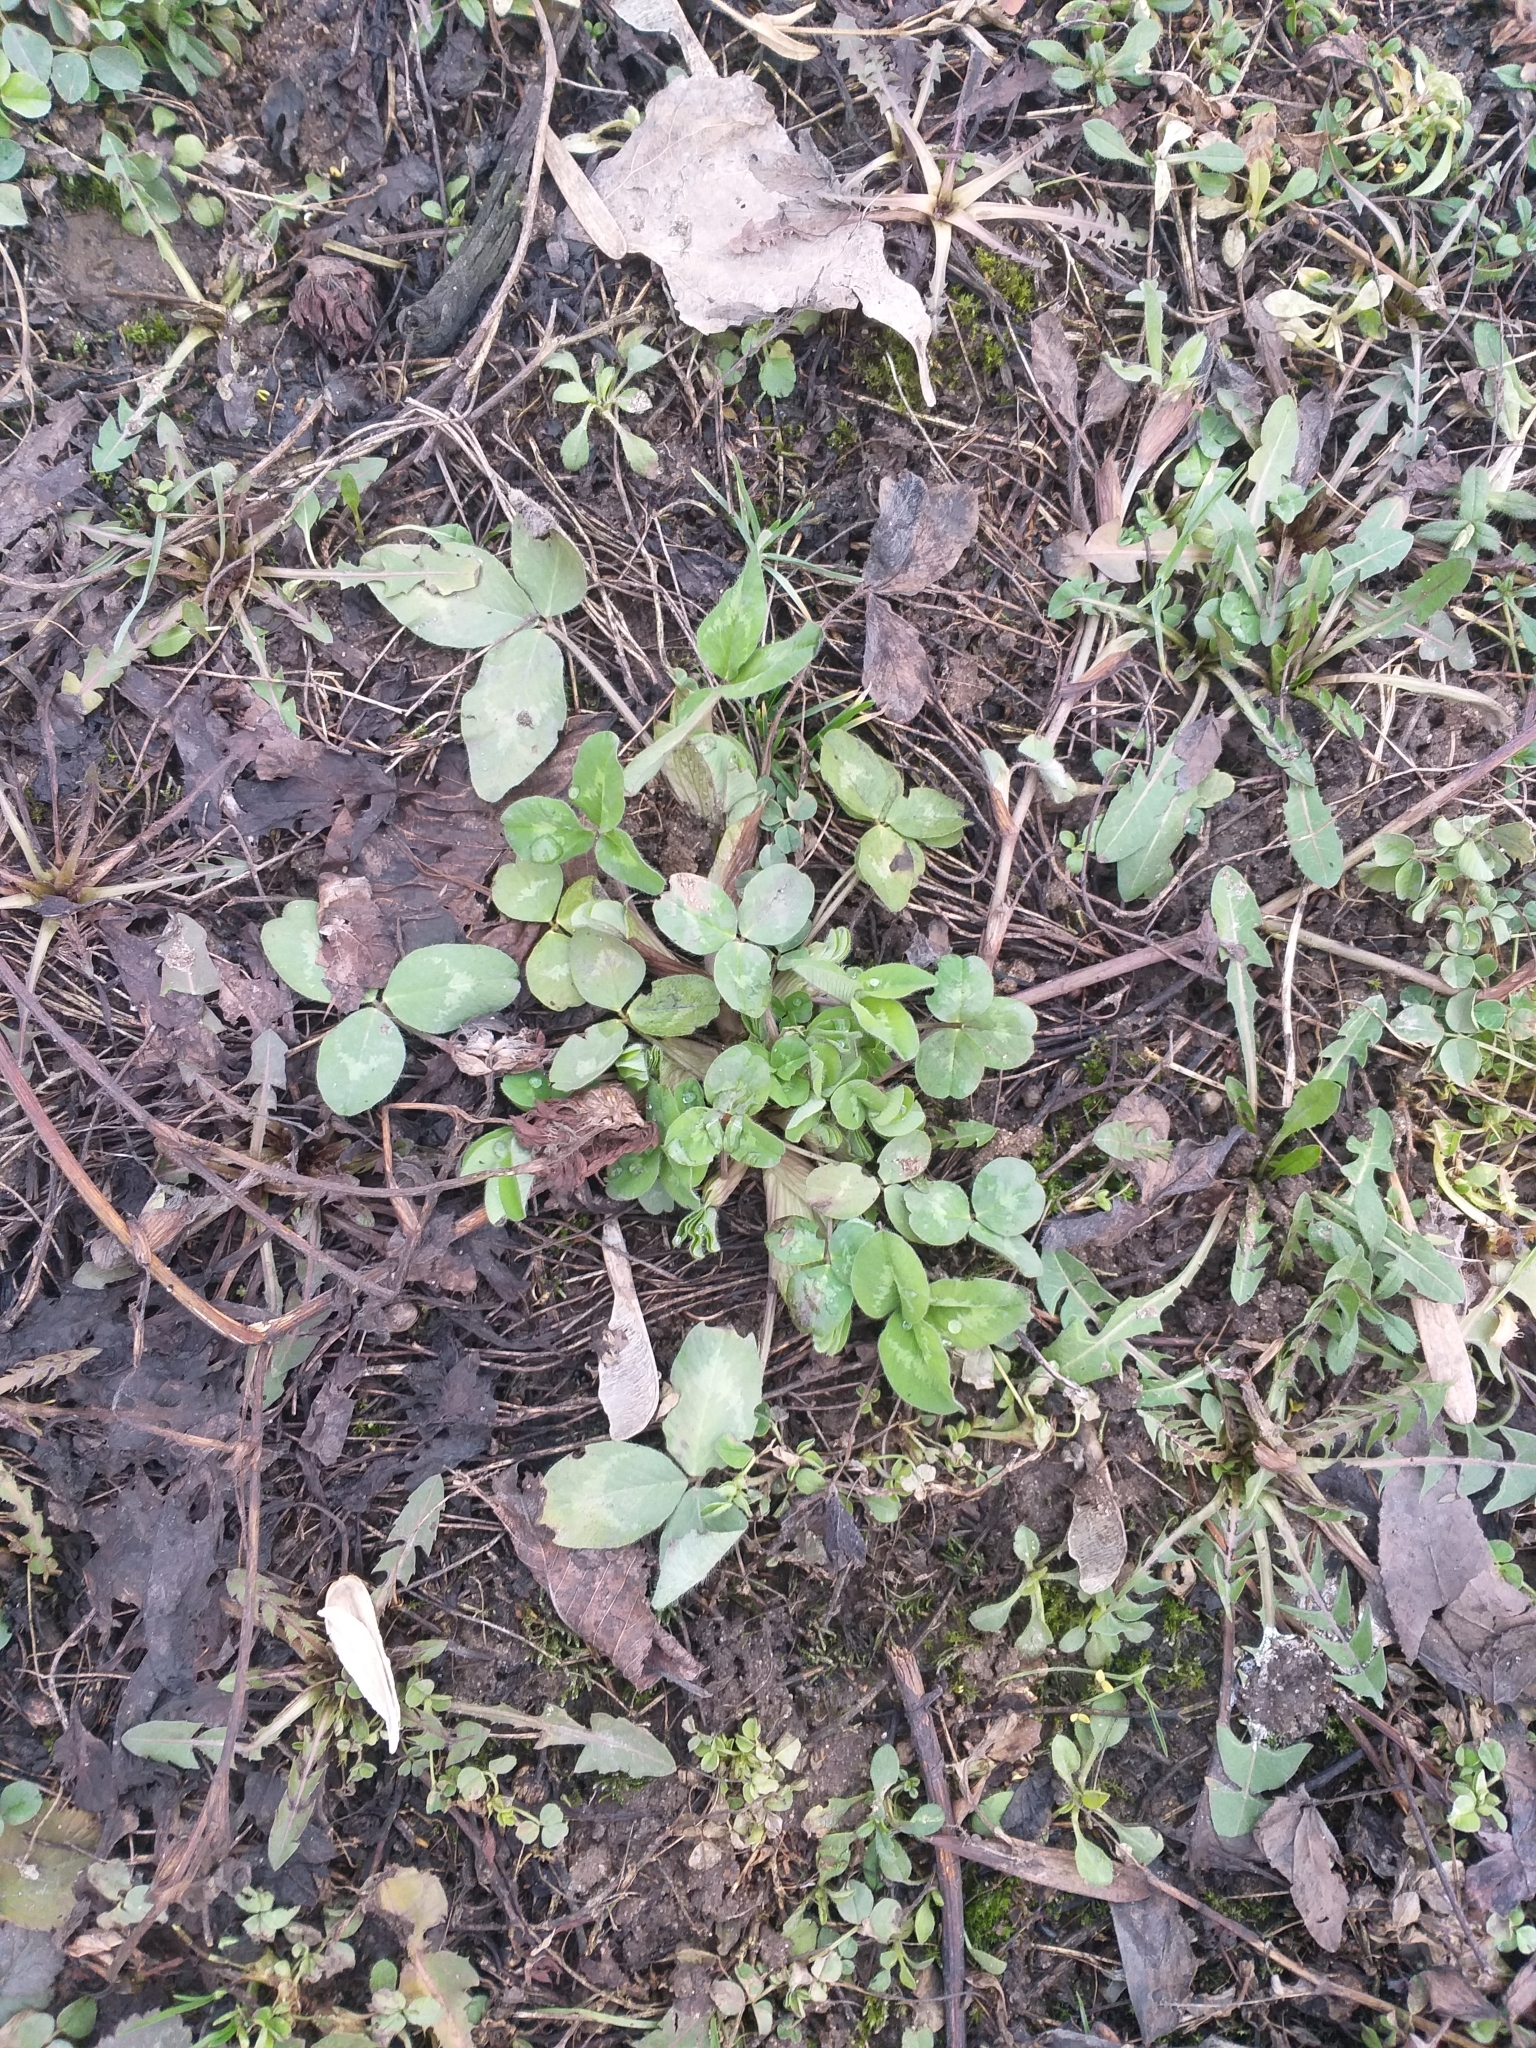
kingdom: Plantae
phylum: Tracheophyta
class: Magnoliopsida
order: Fabales
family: Fabaceae
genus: Trifolium
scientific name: Trifolium pratense
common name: Red clover
